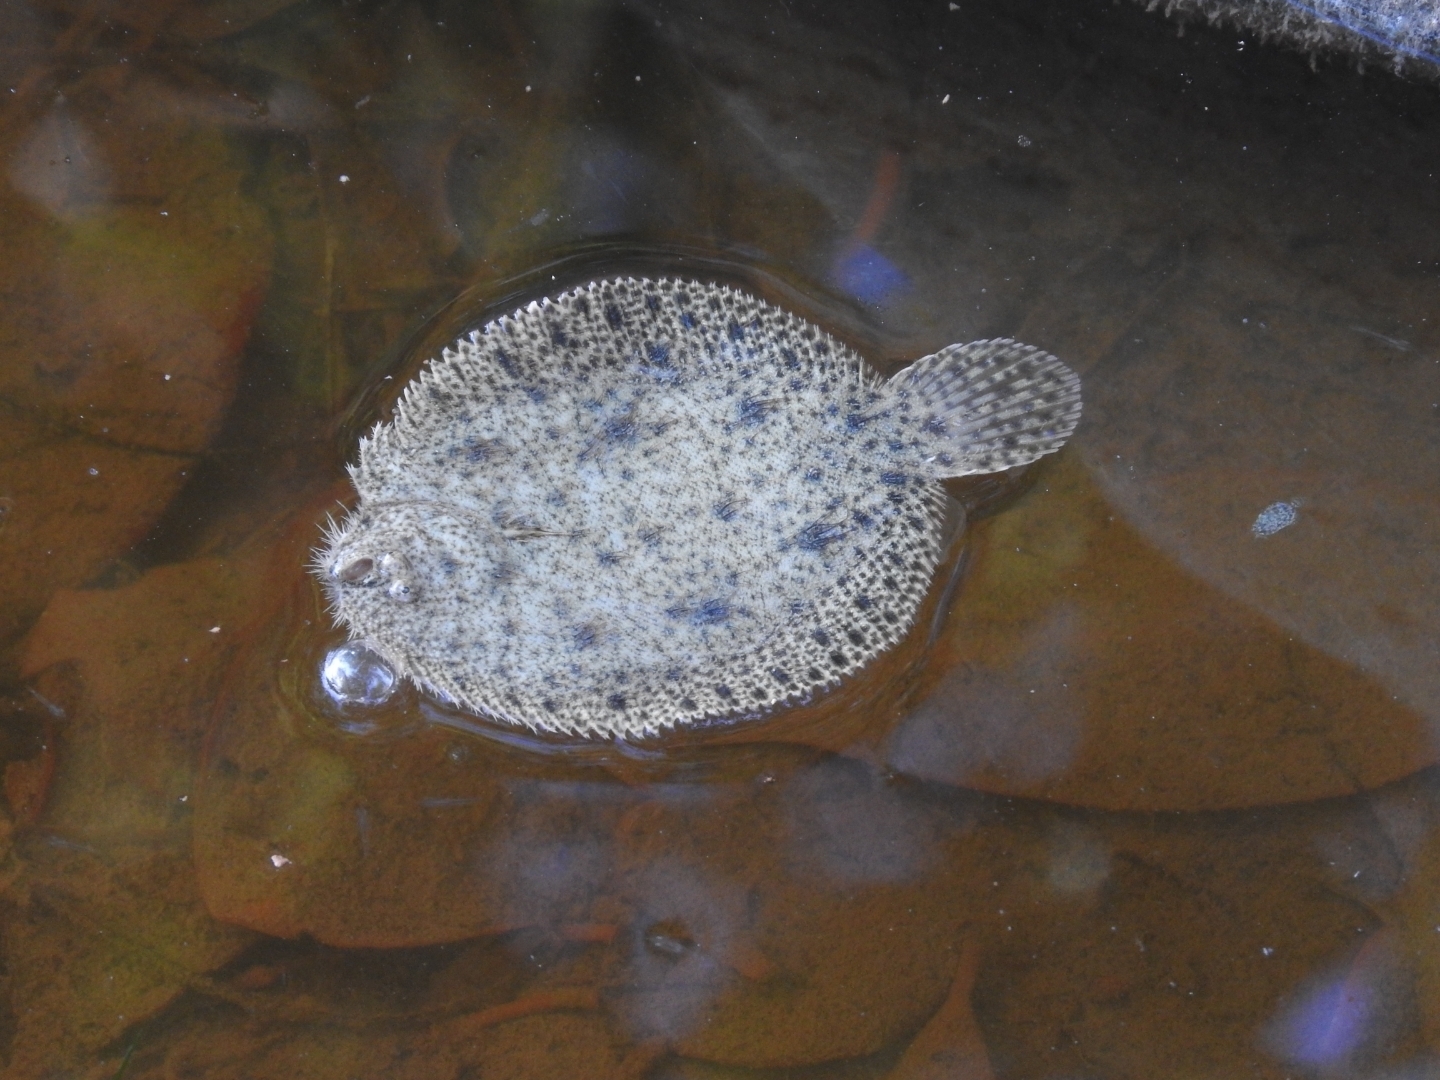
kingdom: Animalia
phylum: Chordata
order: Pleuronectiformes
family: Achiridae
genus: Achirus
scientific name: Achirus lineatus
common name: Lined sole
